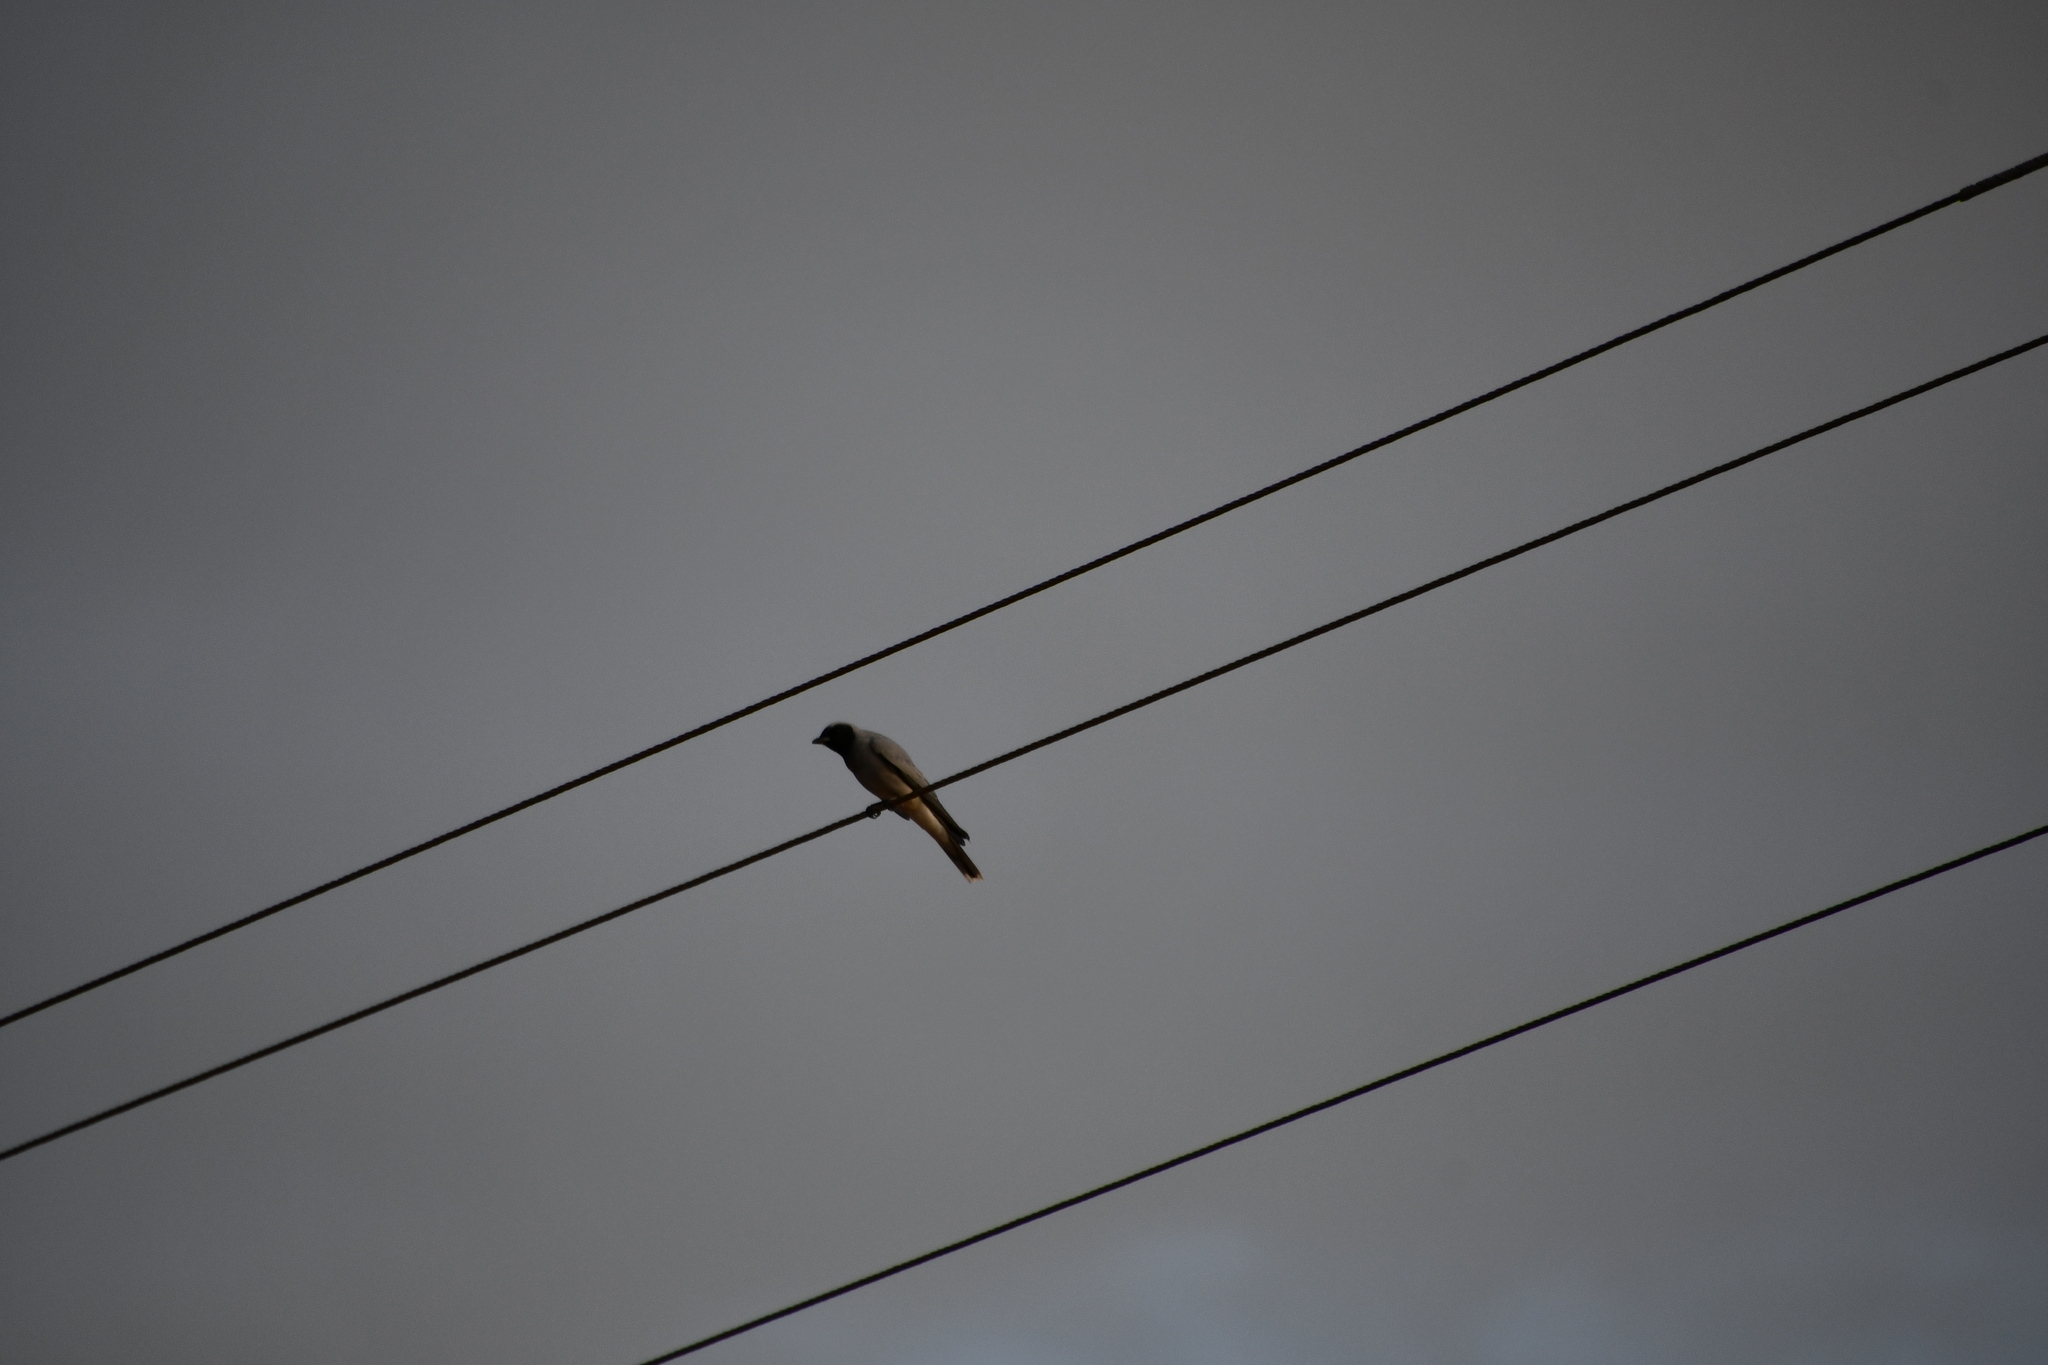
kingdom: Animalia
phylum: Chordata
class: Aves
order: Passeriformes
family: Campephagidae
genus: Coracina
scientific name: Coracina novaehollandiae
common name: Black-faced cuckooshrike
